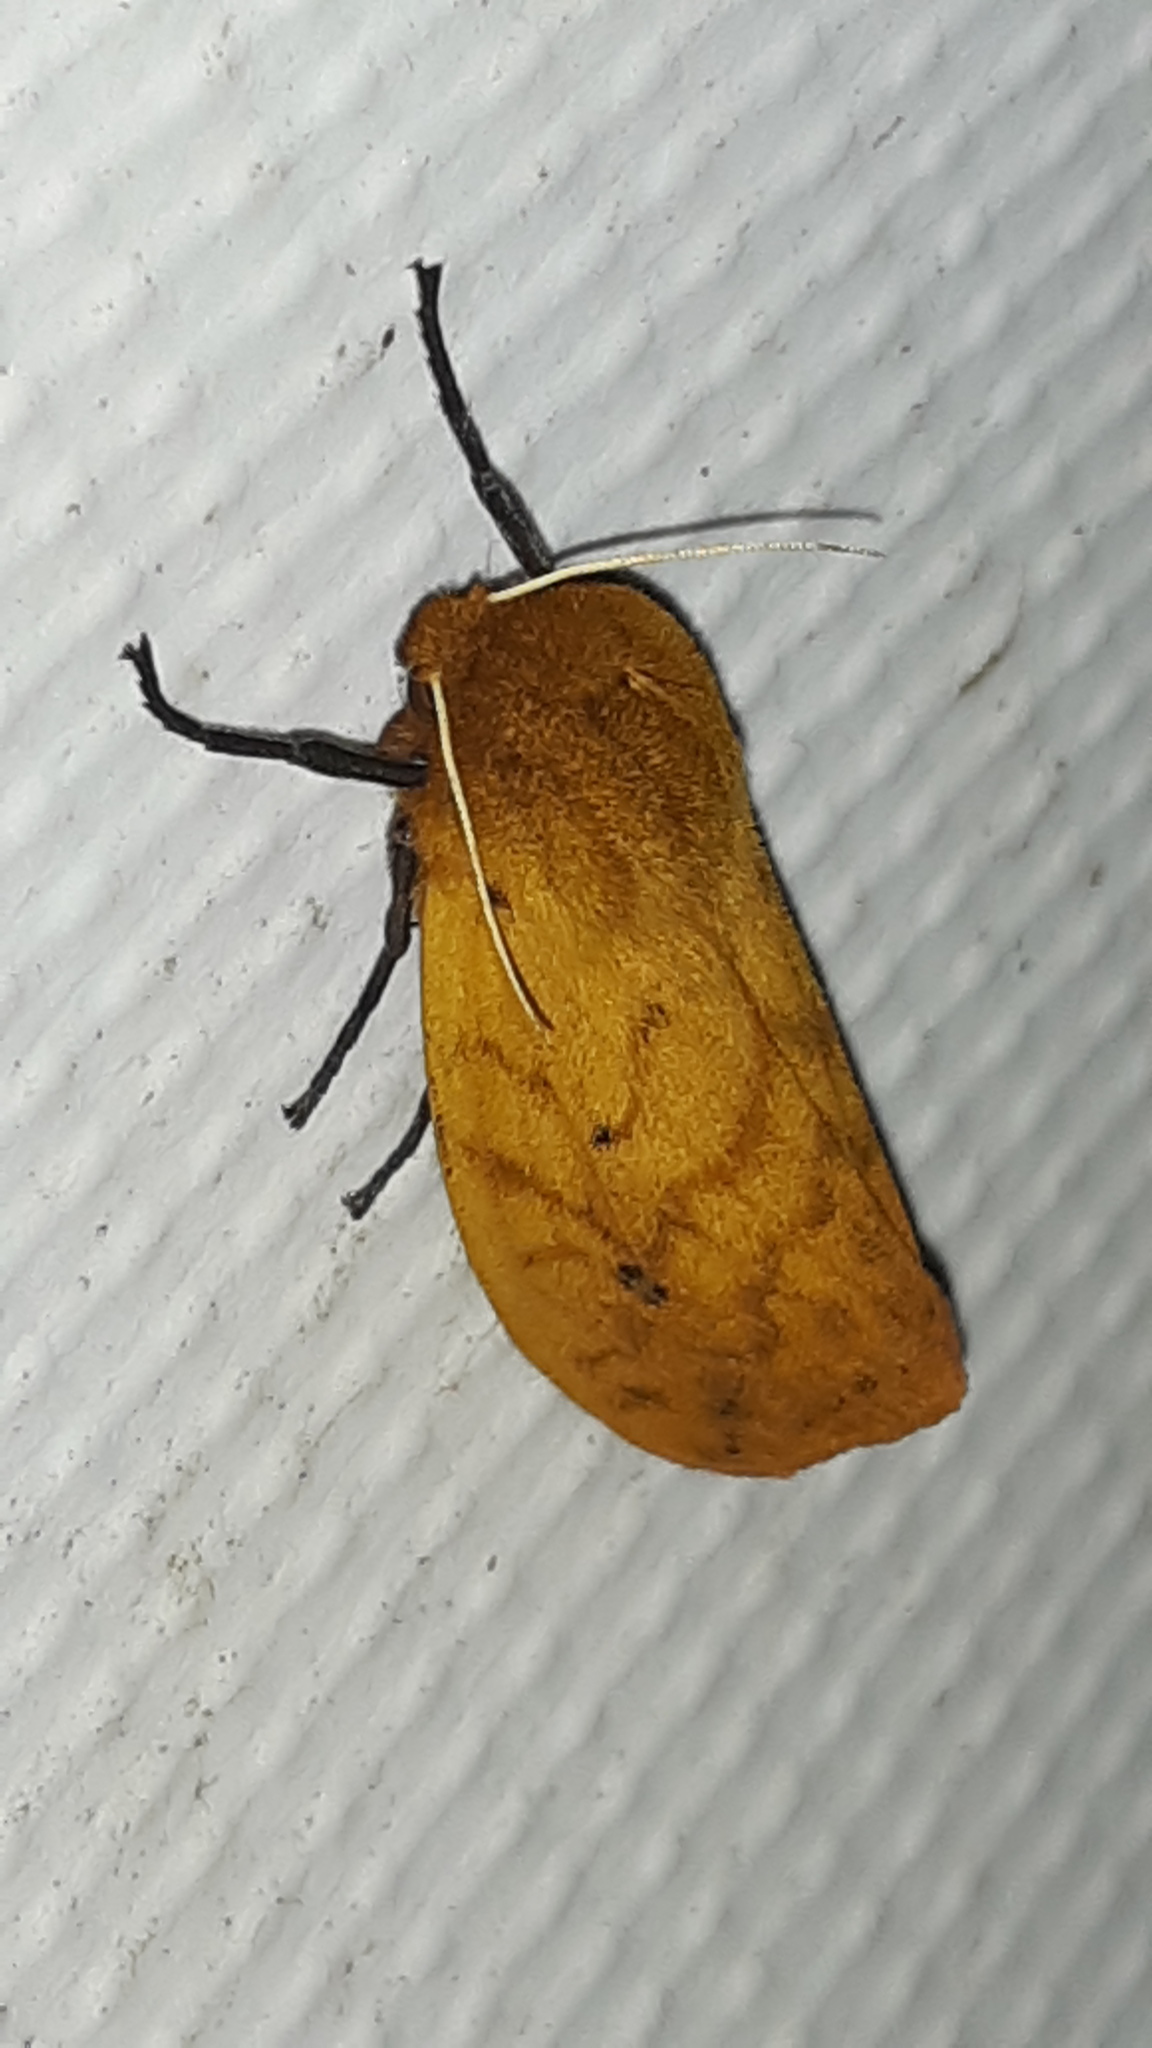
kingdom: Animalia
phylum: Arthropoda
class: Insecta
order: Lepidoptera
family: Erebidae
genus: Pyrrharctia
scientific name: Pyrrharctia isabella
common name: Isabella tiger moth
